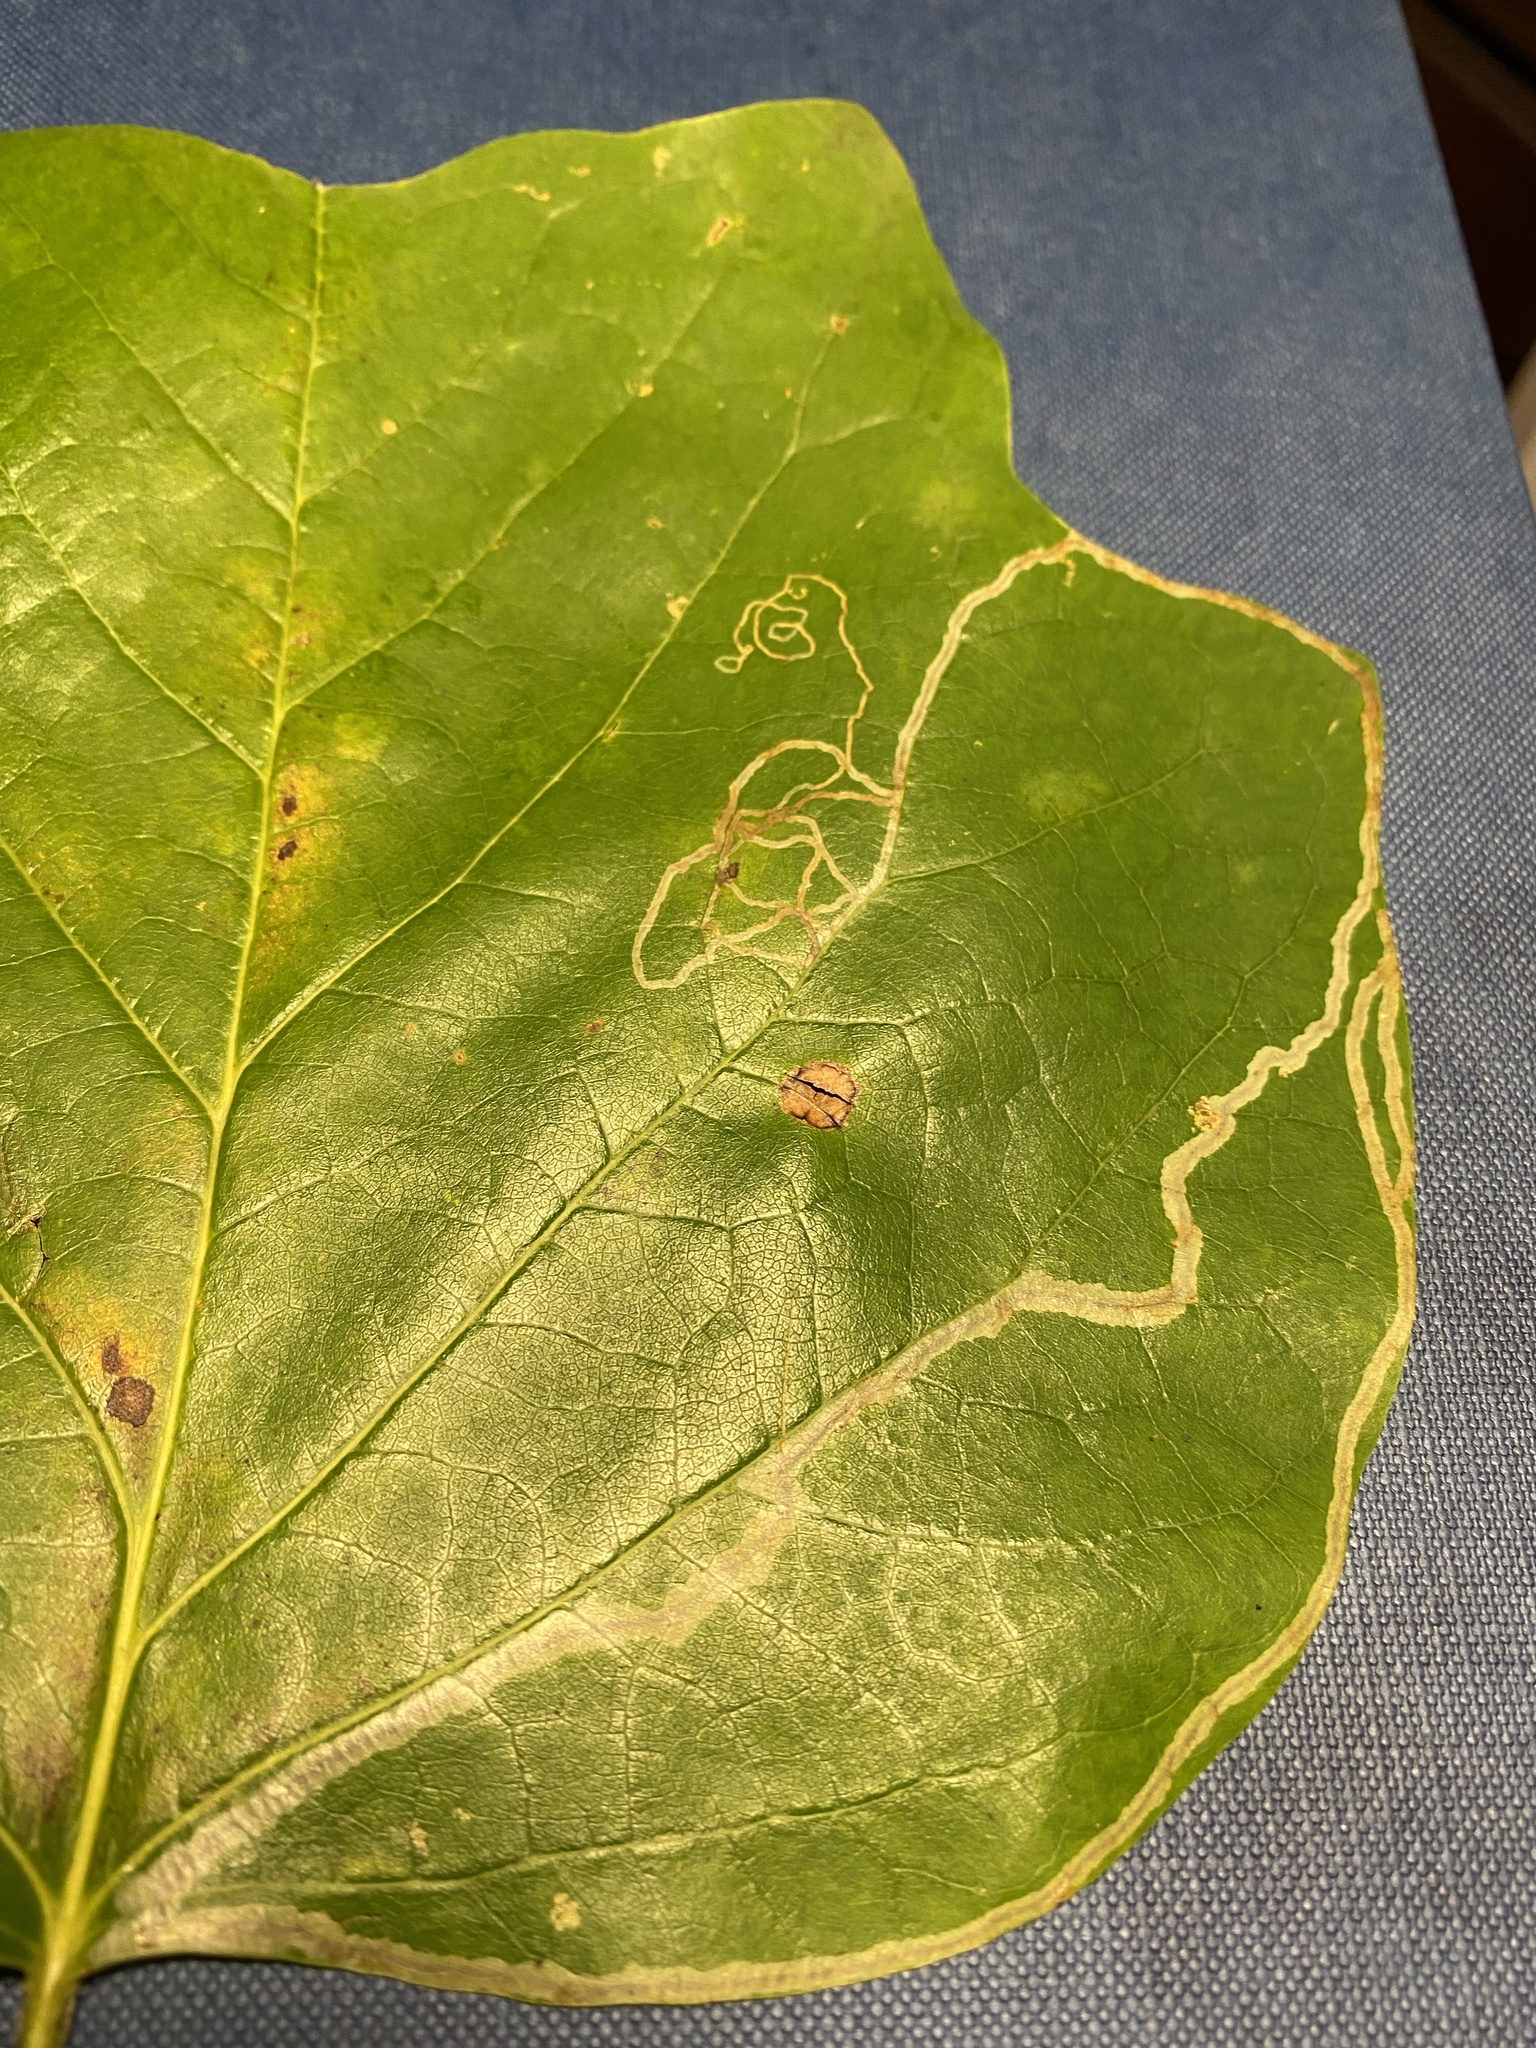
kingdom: Animalia
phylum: Arthropoda
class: Insecta
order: Lepidoptera
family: Gracillariidae
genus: Phyllocnistis
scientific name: Phyllocnistis liriodendronella
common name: Tulip tree leaf miner
